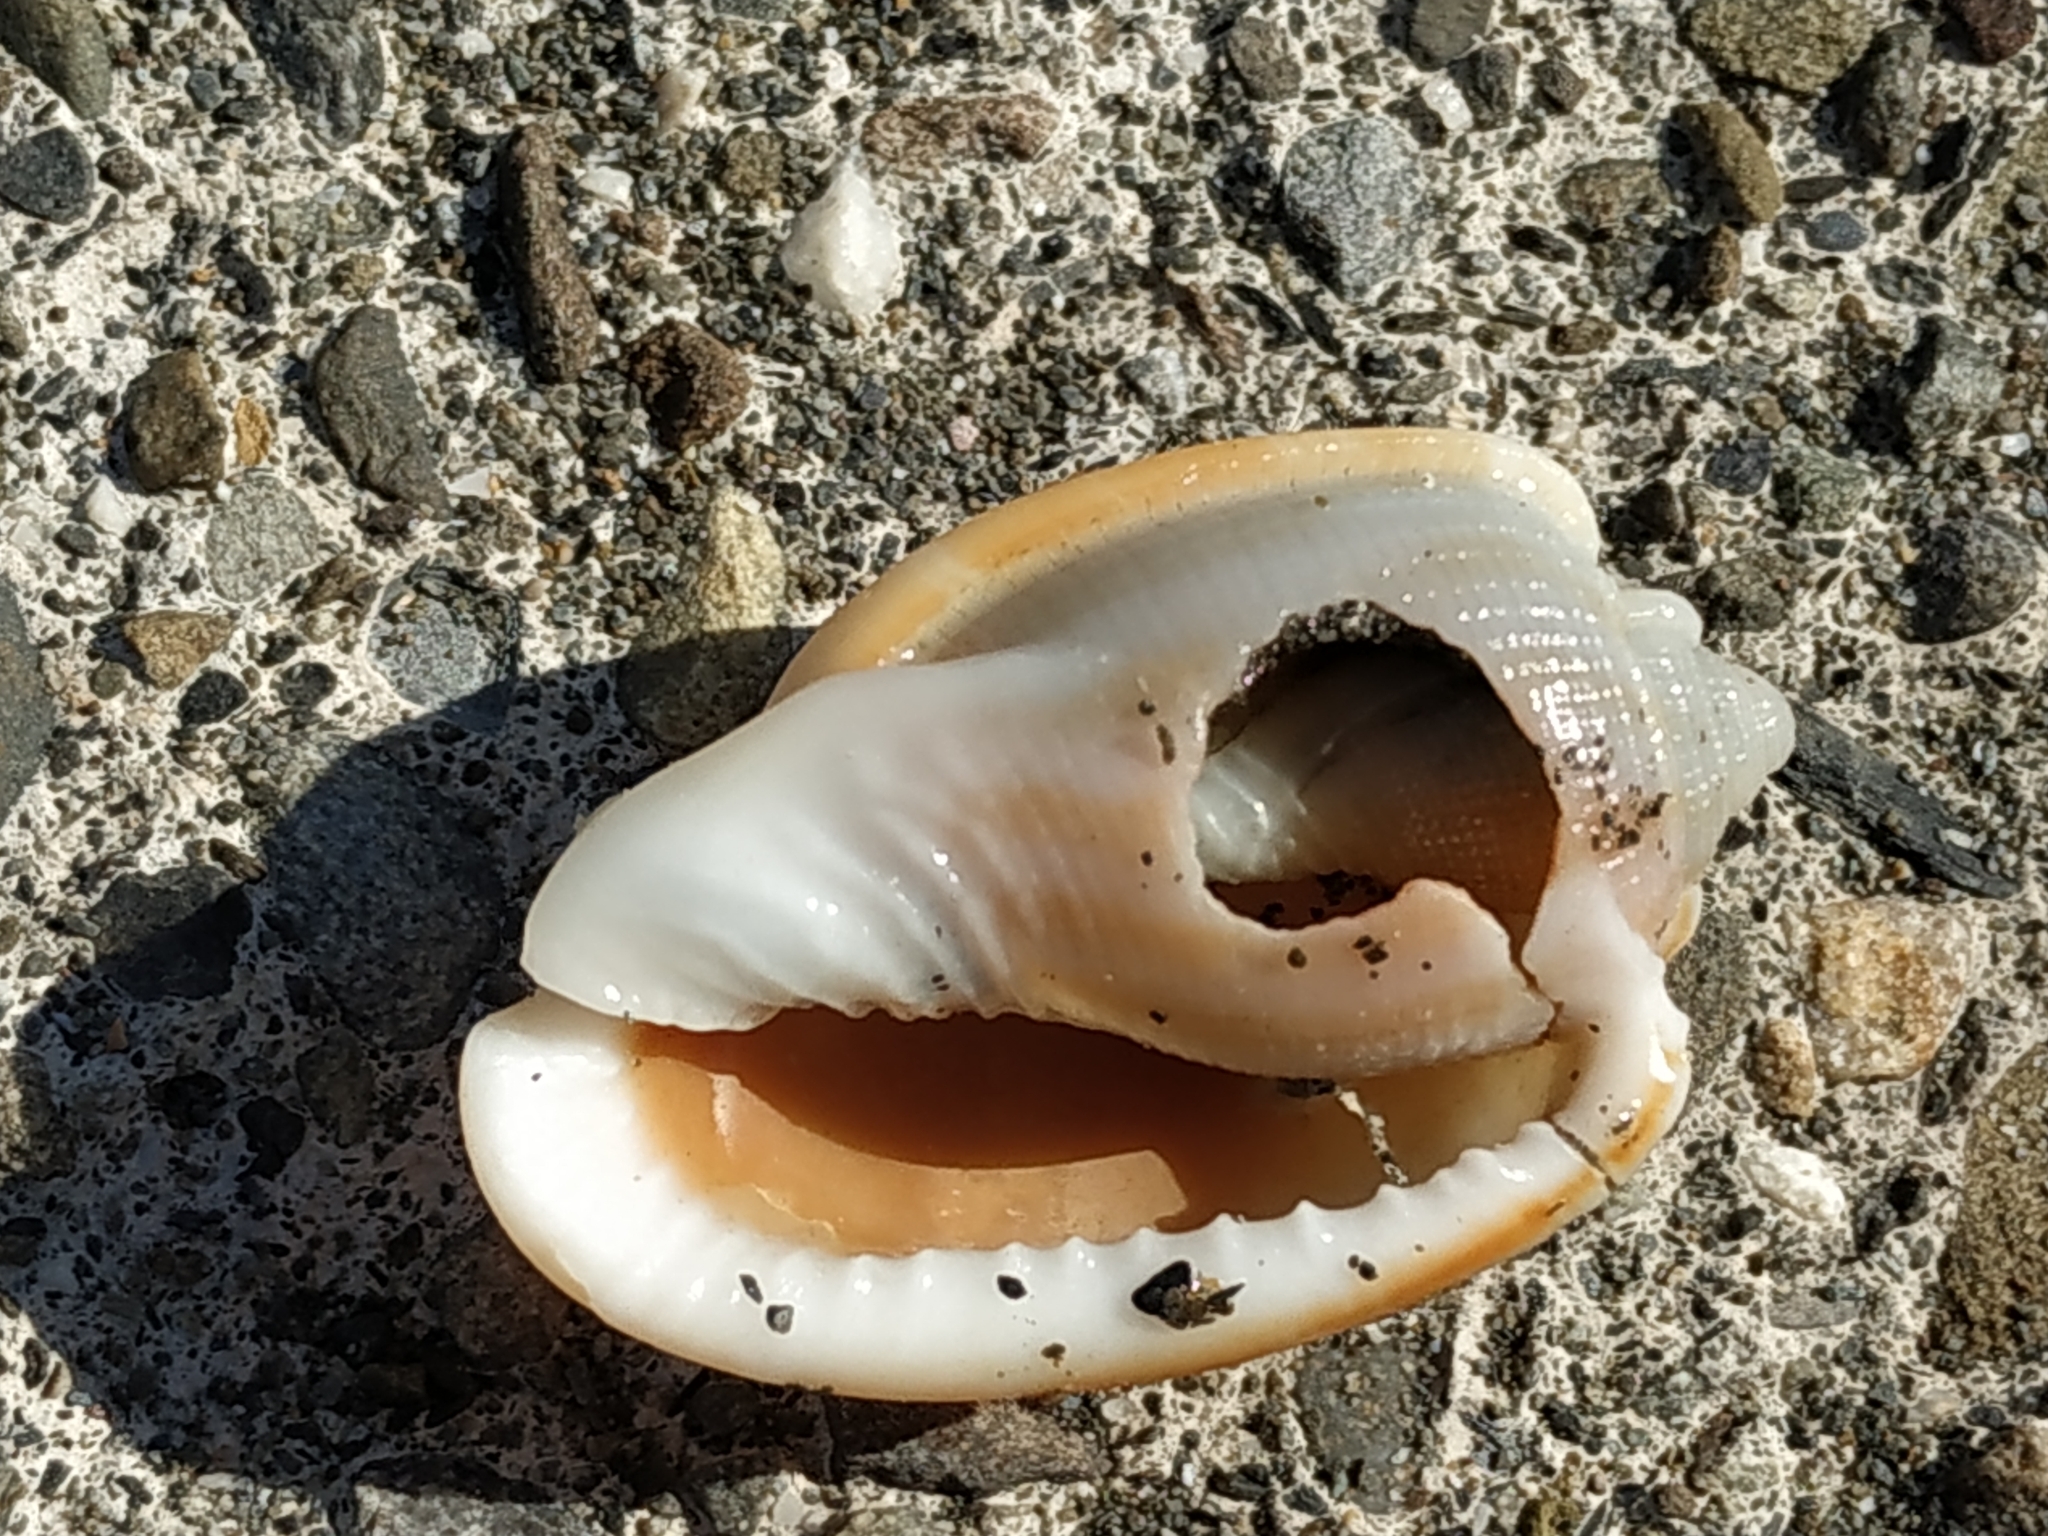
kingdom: Animalia
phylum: Mollusca
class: Gastropoda
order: Littorinimorpha
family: Cassidae
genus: Phalium
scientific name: Phalium decussatum
